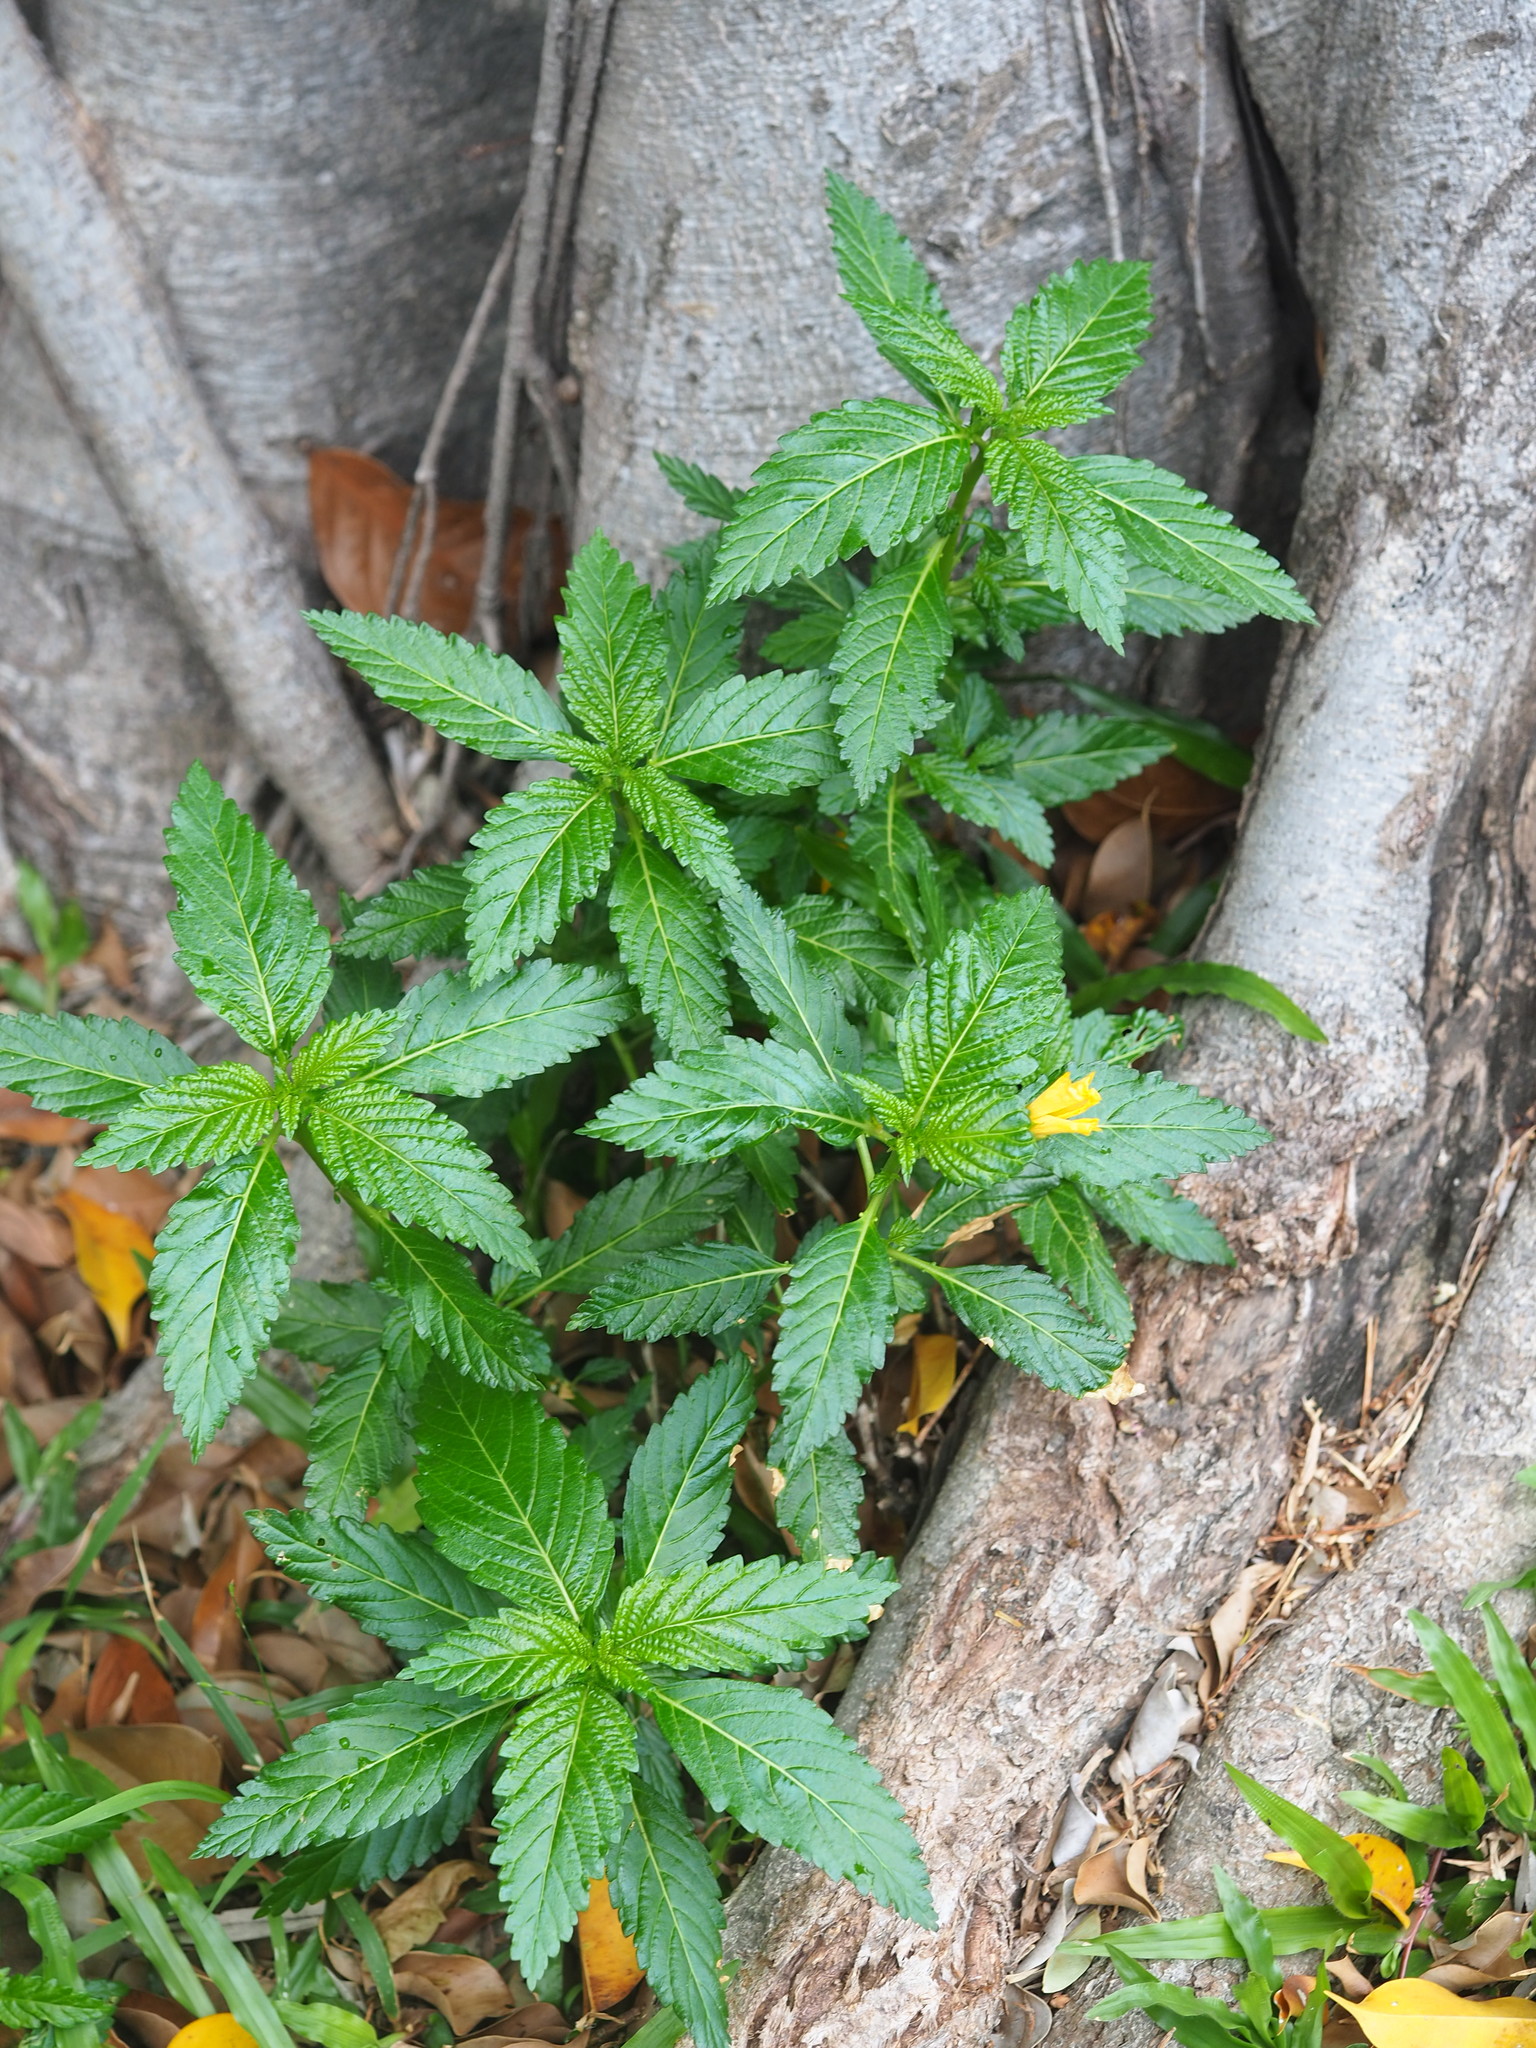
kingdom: Plantae
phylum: Tracheophyta
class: Magnoliopsida
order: Malpighiales
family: Turneraceae
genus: Turnera
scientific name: Turnera ulmifolia
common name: Ramgoat dashalong
